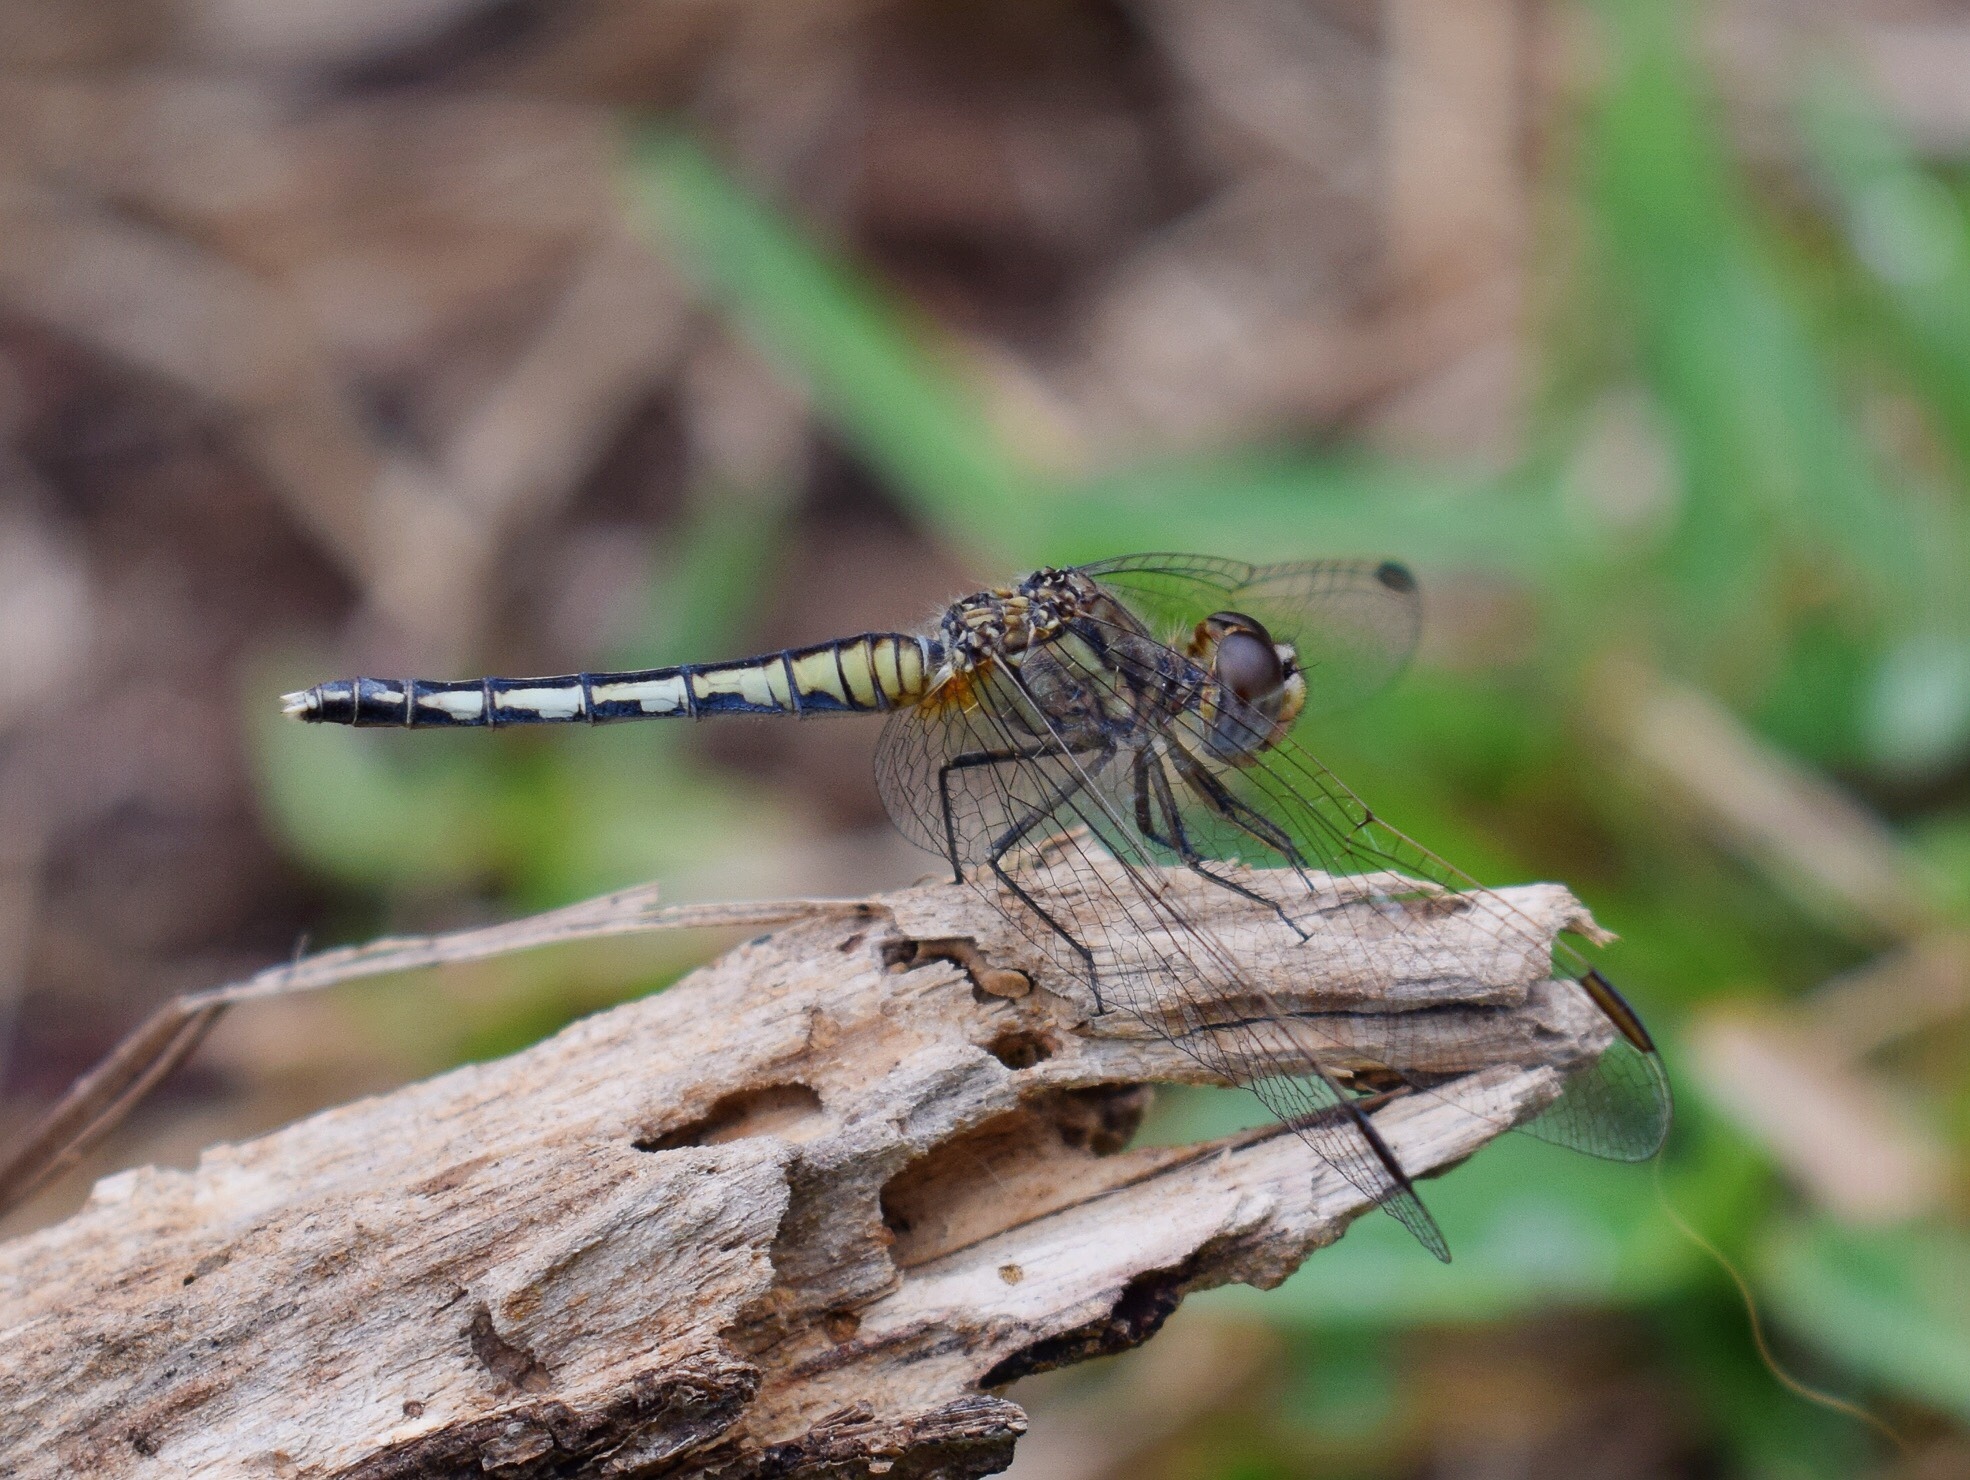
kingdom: Animalia
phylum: Arthropoda
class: Insecta
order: Odonata
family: Libellulidae
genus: Diplacodes
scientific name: Diplacodes lefebvrii
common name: Black percher
